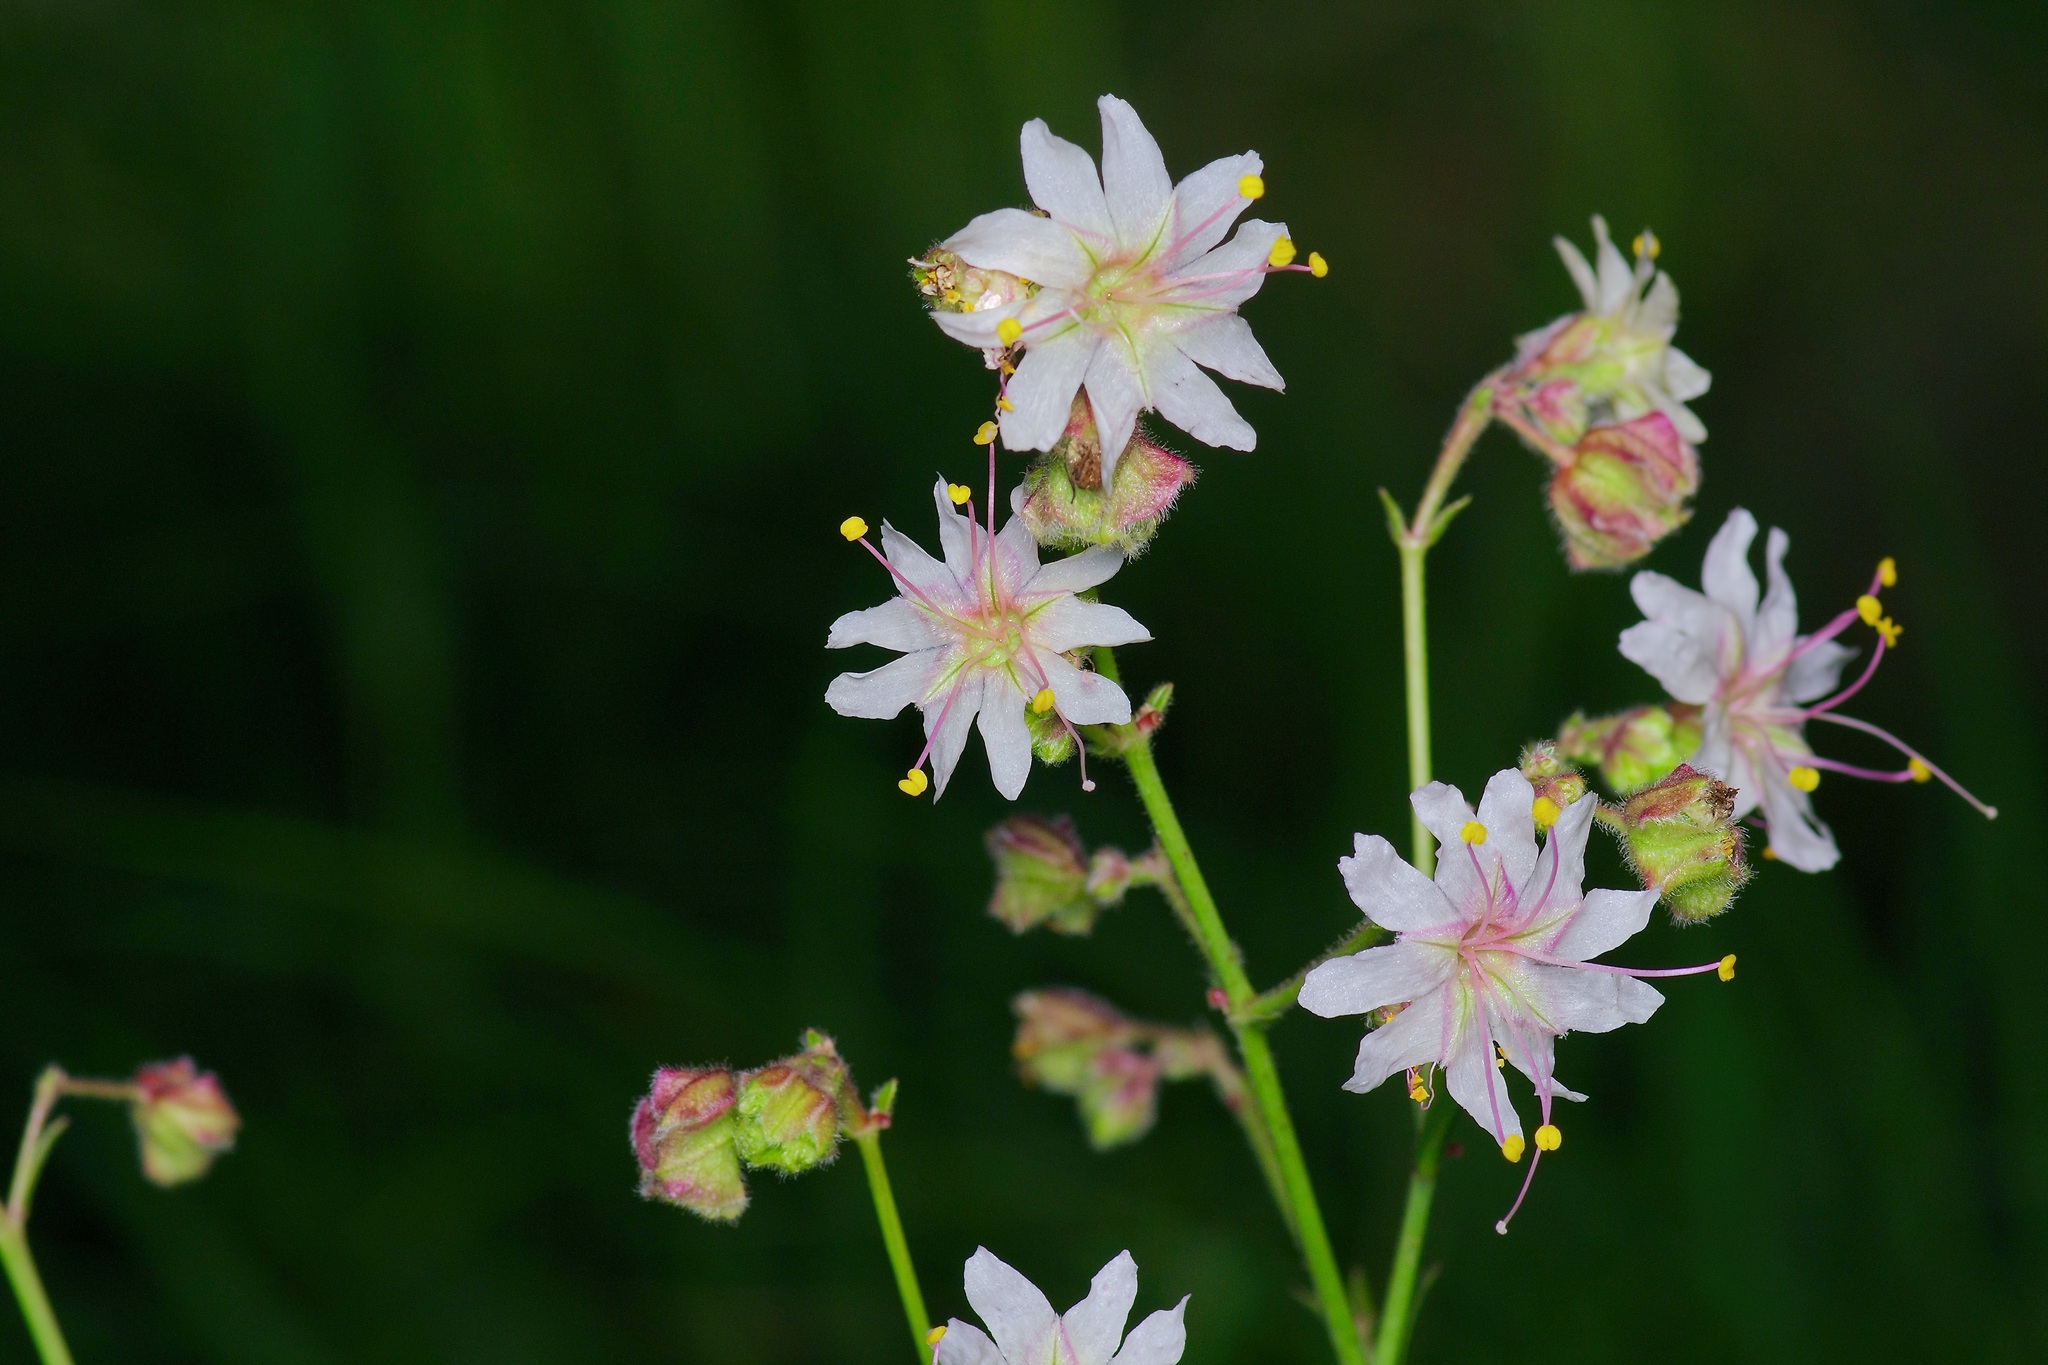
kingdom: Plantae
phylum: Tracheophyta
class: Magnoliopsida
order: Caryophyllales
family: Nyctaginaceae
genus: Mirabilis
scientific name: Mirabilis linearis
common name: Linear-leaved four-o'clock
